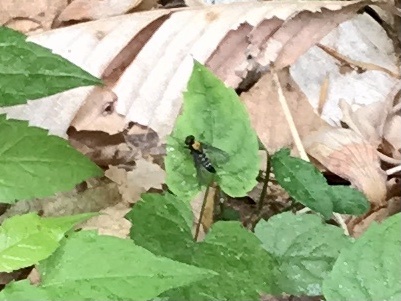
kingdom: Animalia
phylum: Arthropoda
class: Insecta
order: Diptera
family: Rhagionidae
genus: Chrysopilus
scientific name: Chrysopilus thoracicus
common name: Golden-backed snipe fly
